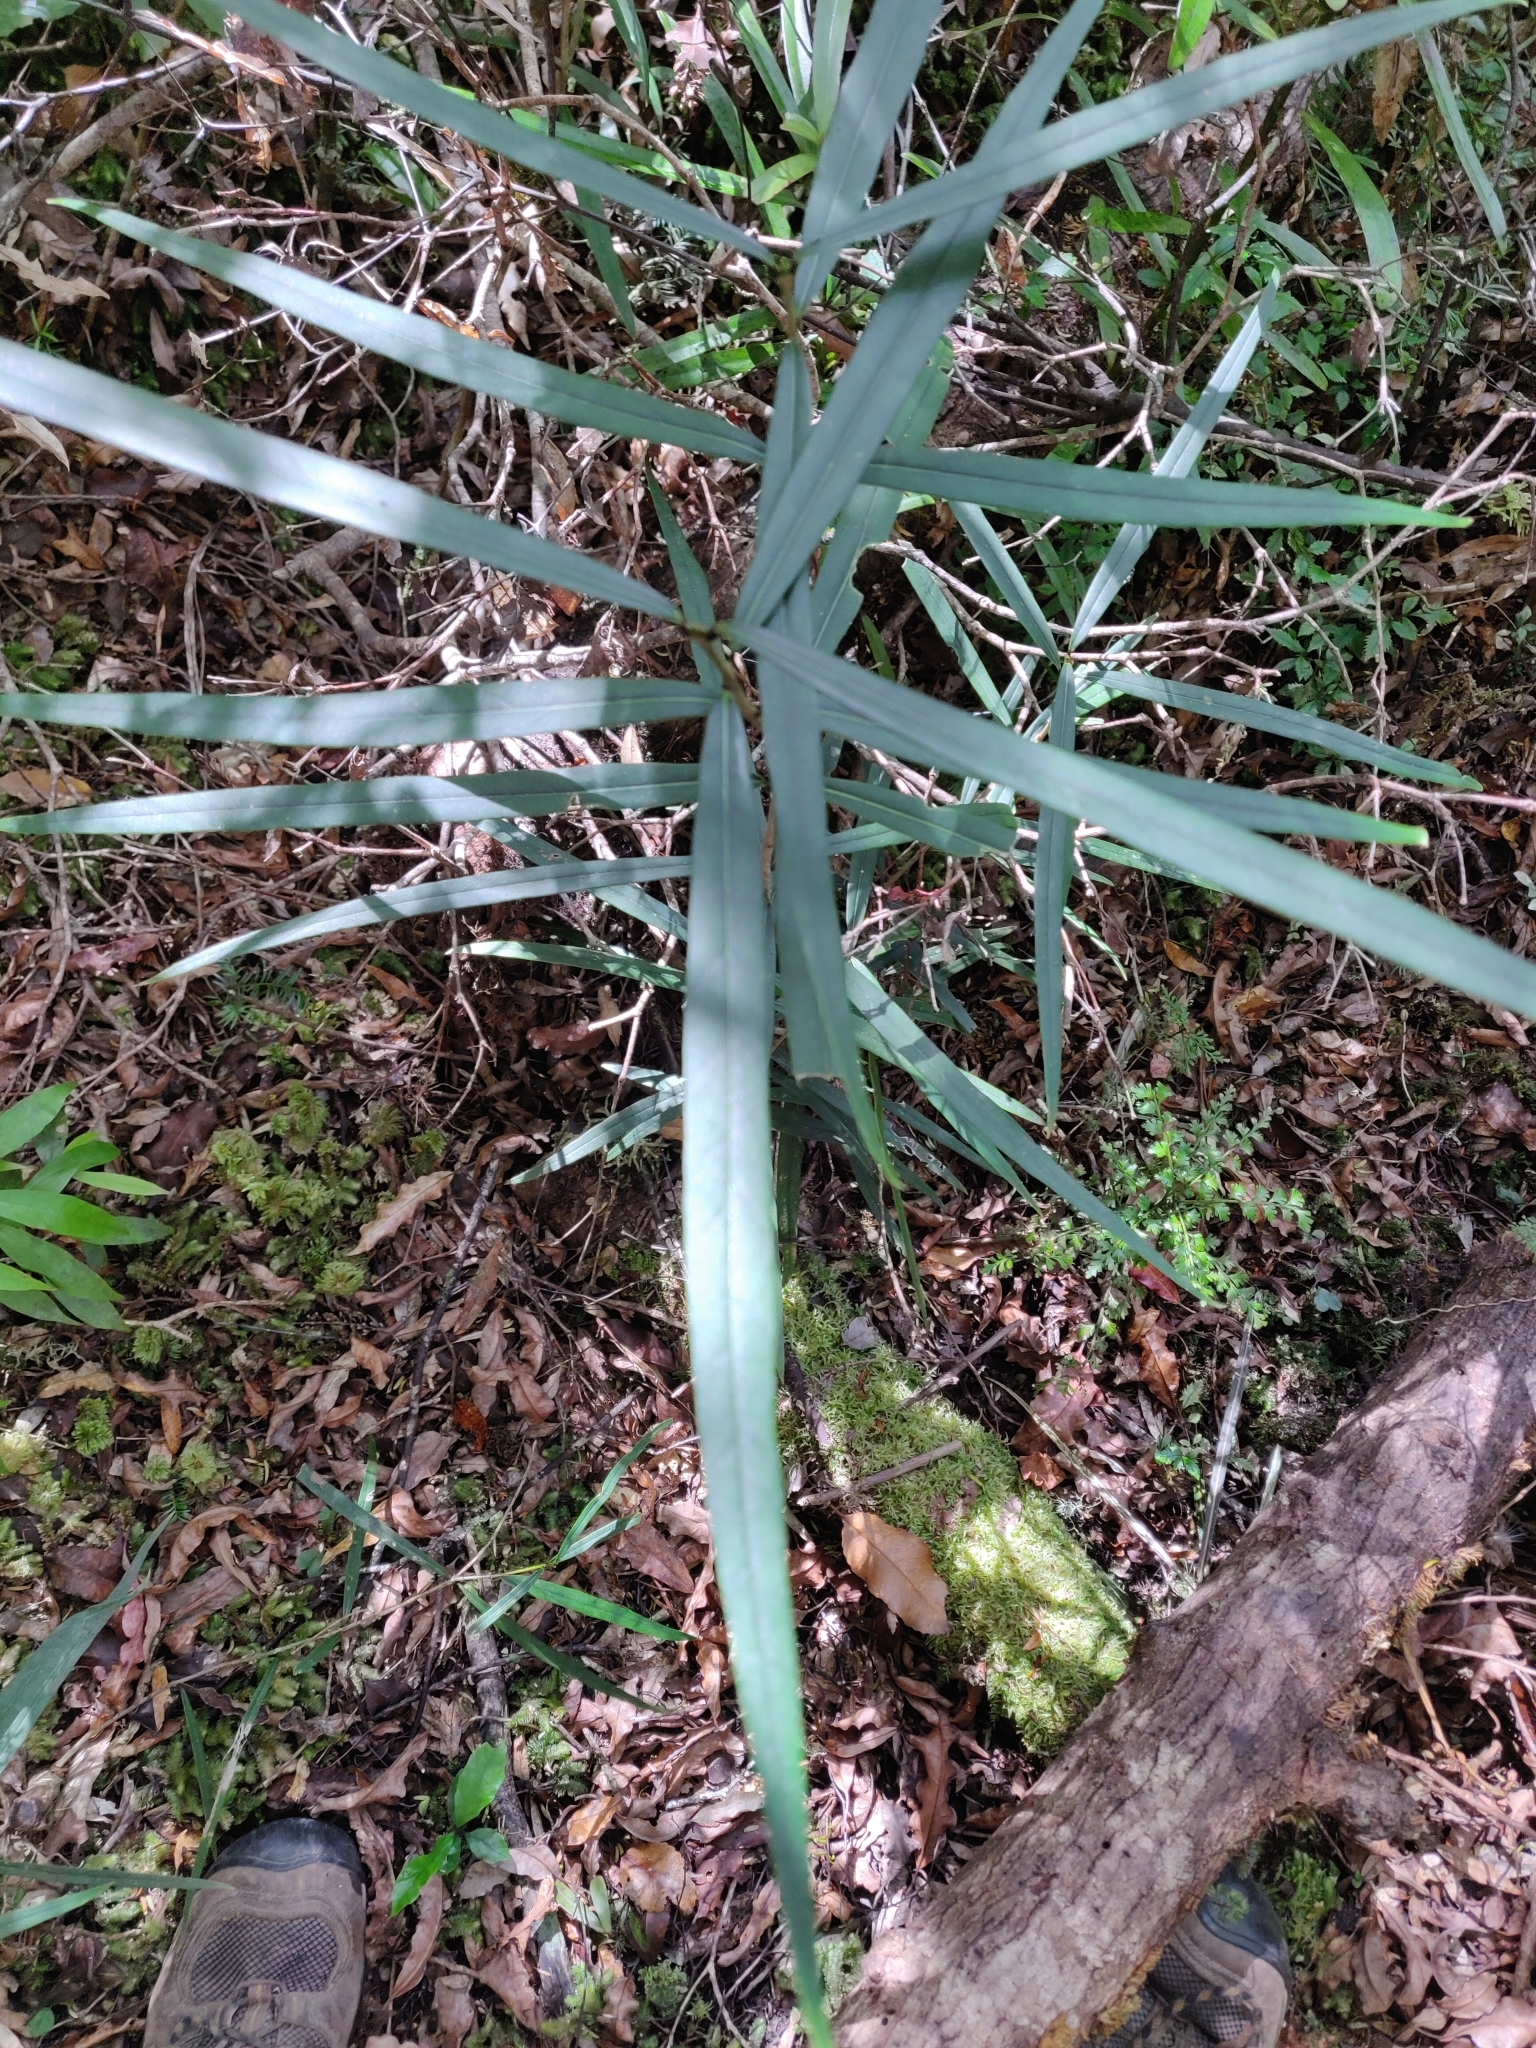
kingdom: Plantae
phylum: Tracheophyta
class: Magnoliopsida
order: Lamiales
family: Oleaceae
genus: Nestegis
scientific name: Nestegis cunninghamii
